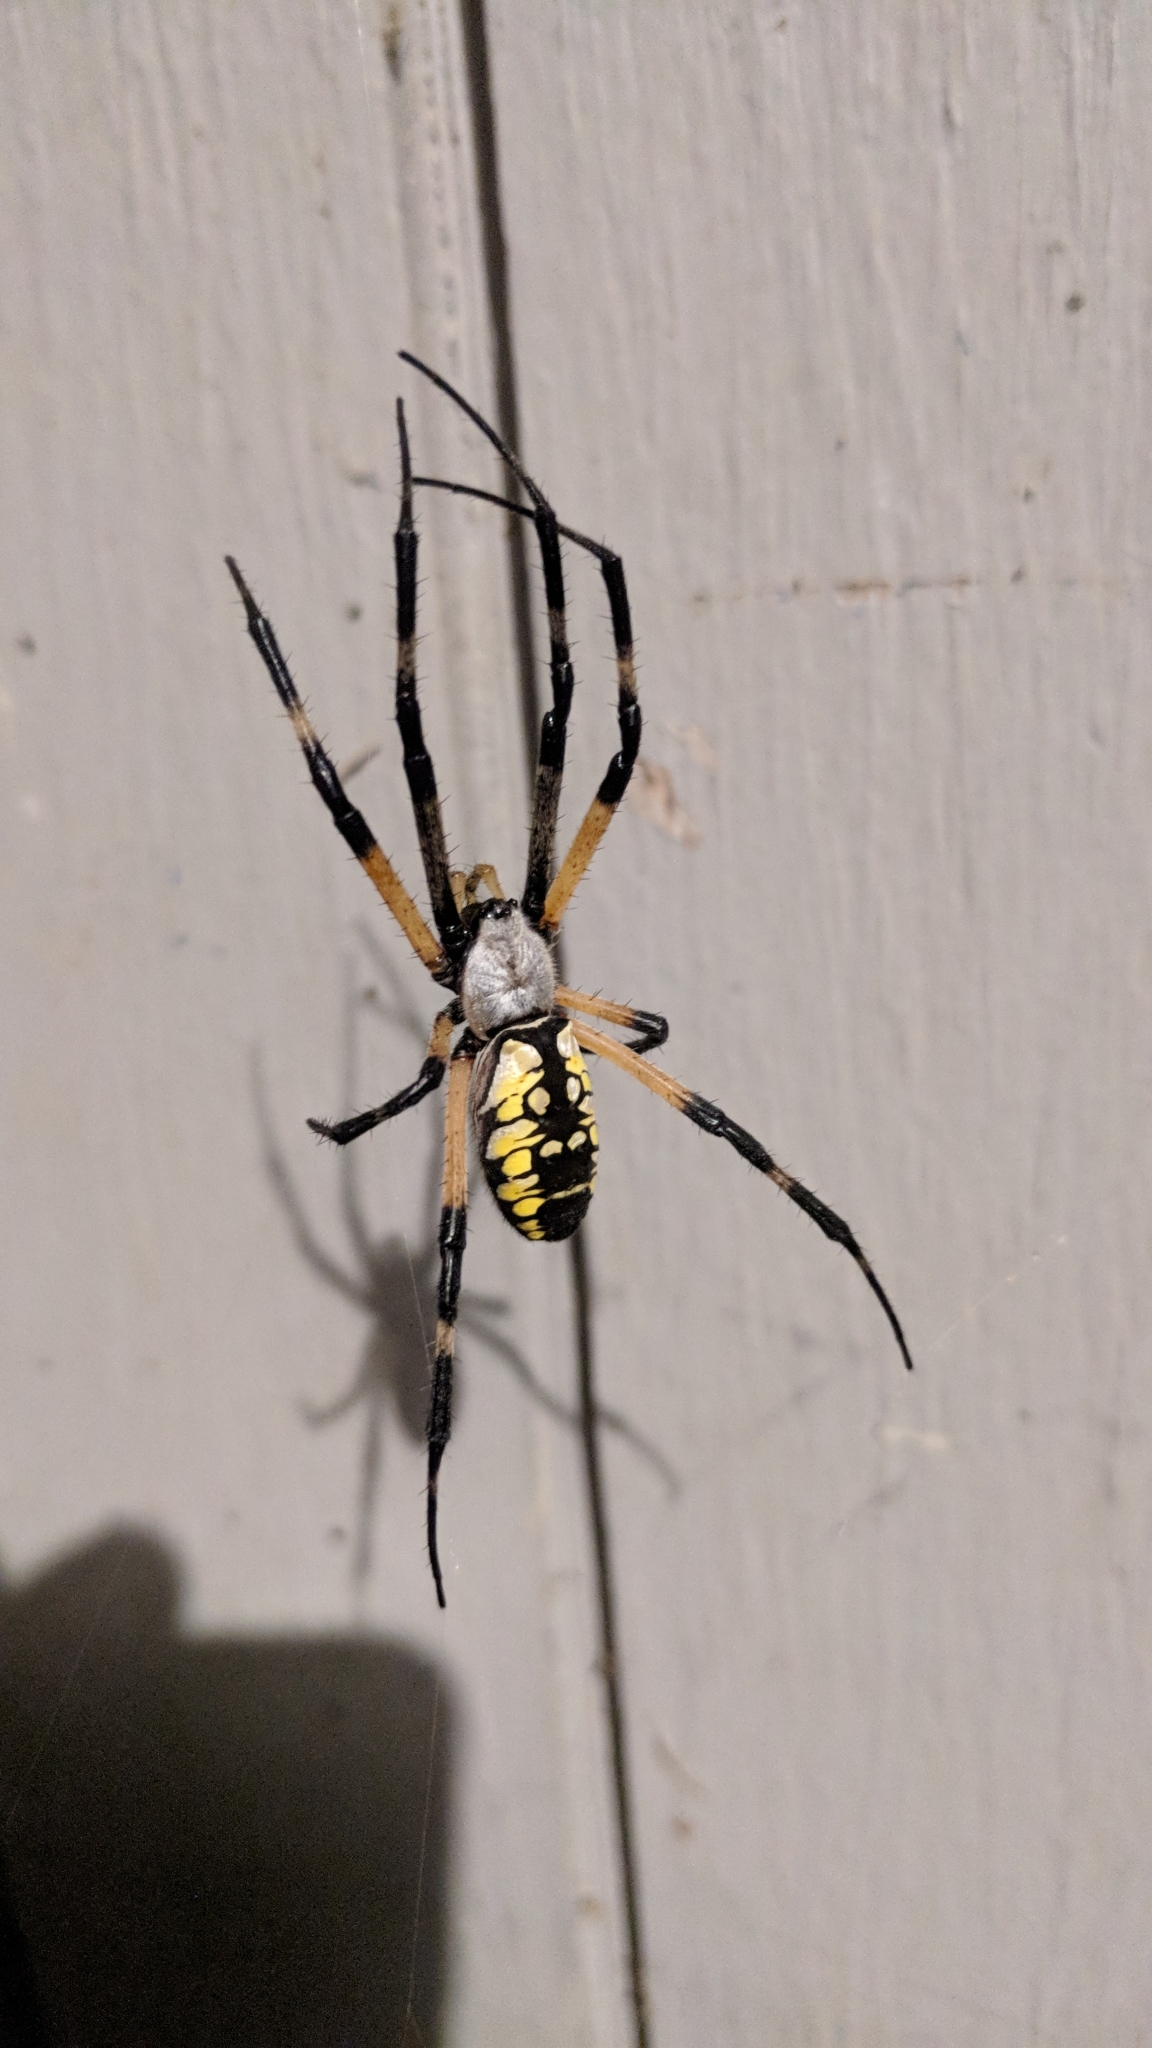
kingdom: Animalia
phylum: Arthropoda
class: Arachnida
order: Araneae
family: Araneidae
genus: Argiope
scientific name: Argiope aurantia
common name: Orb weavers
